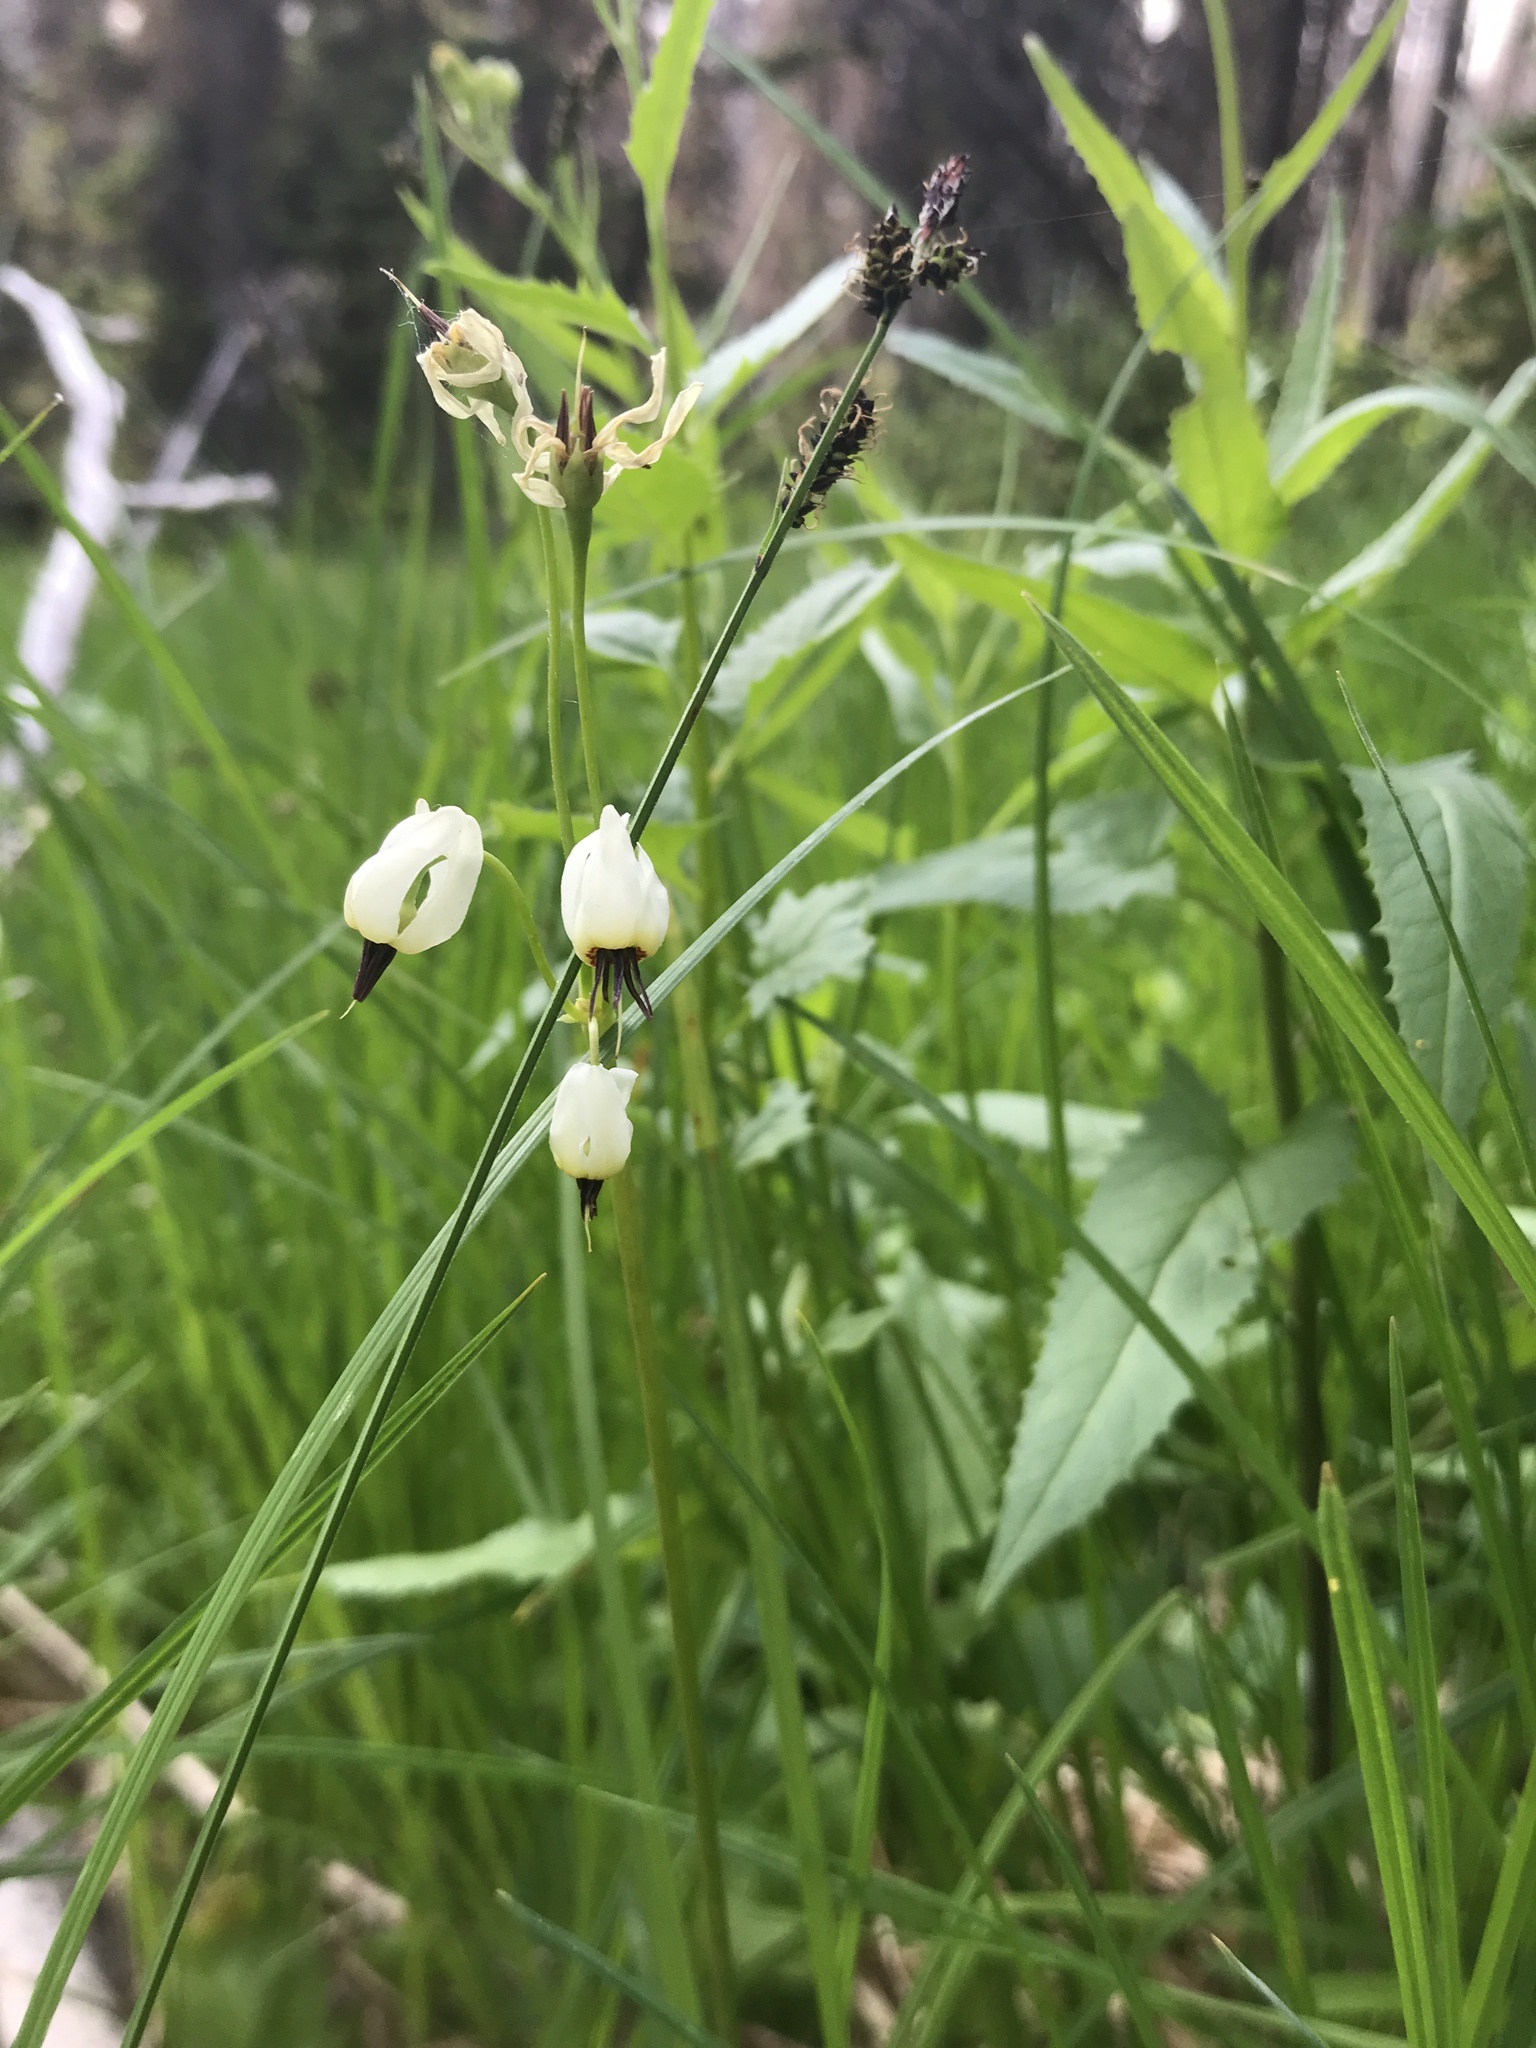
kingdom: Plantae
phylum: Tracheophyta
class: Magnoliopsida
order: Ericales
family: Primulaceae
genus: Dodecatheon
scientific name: Dodecatheon dentatum
